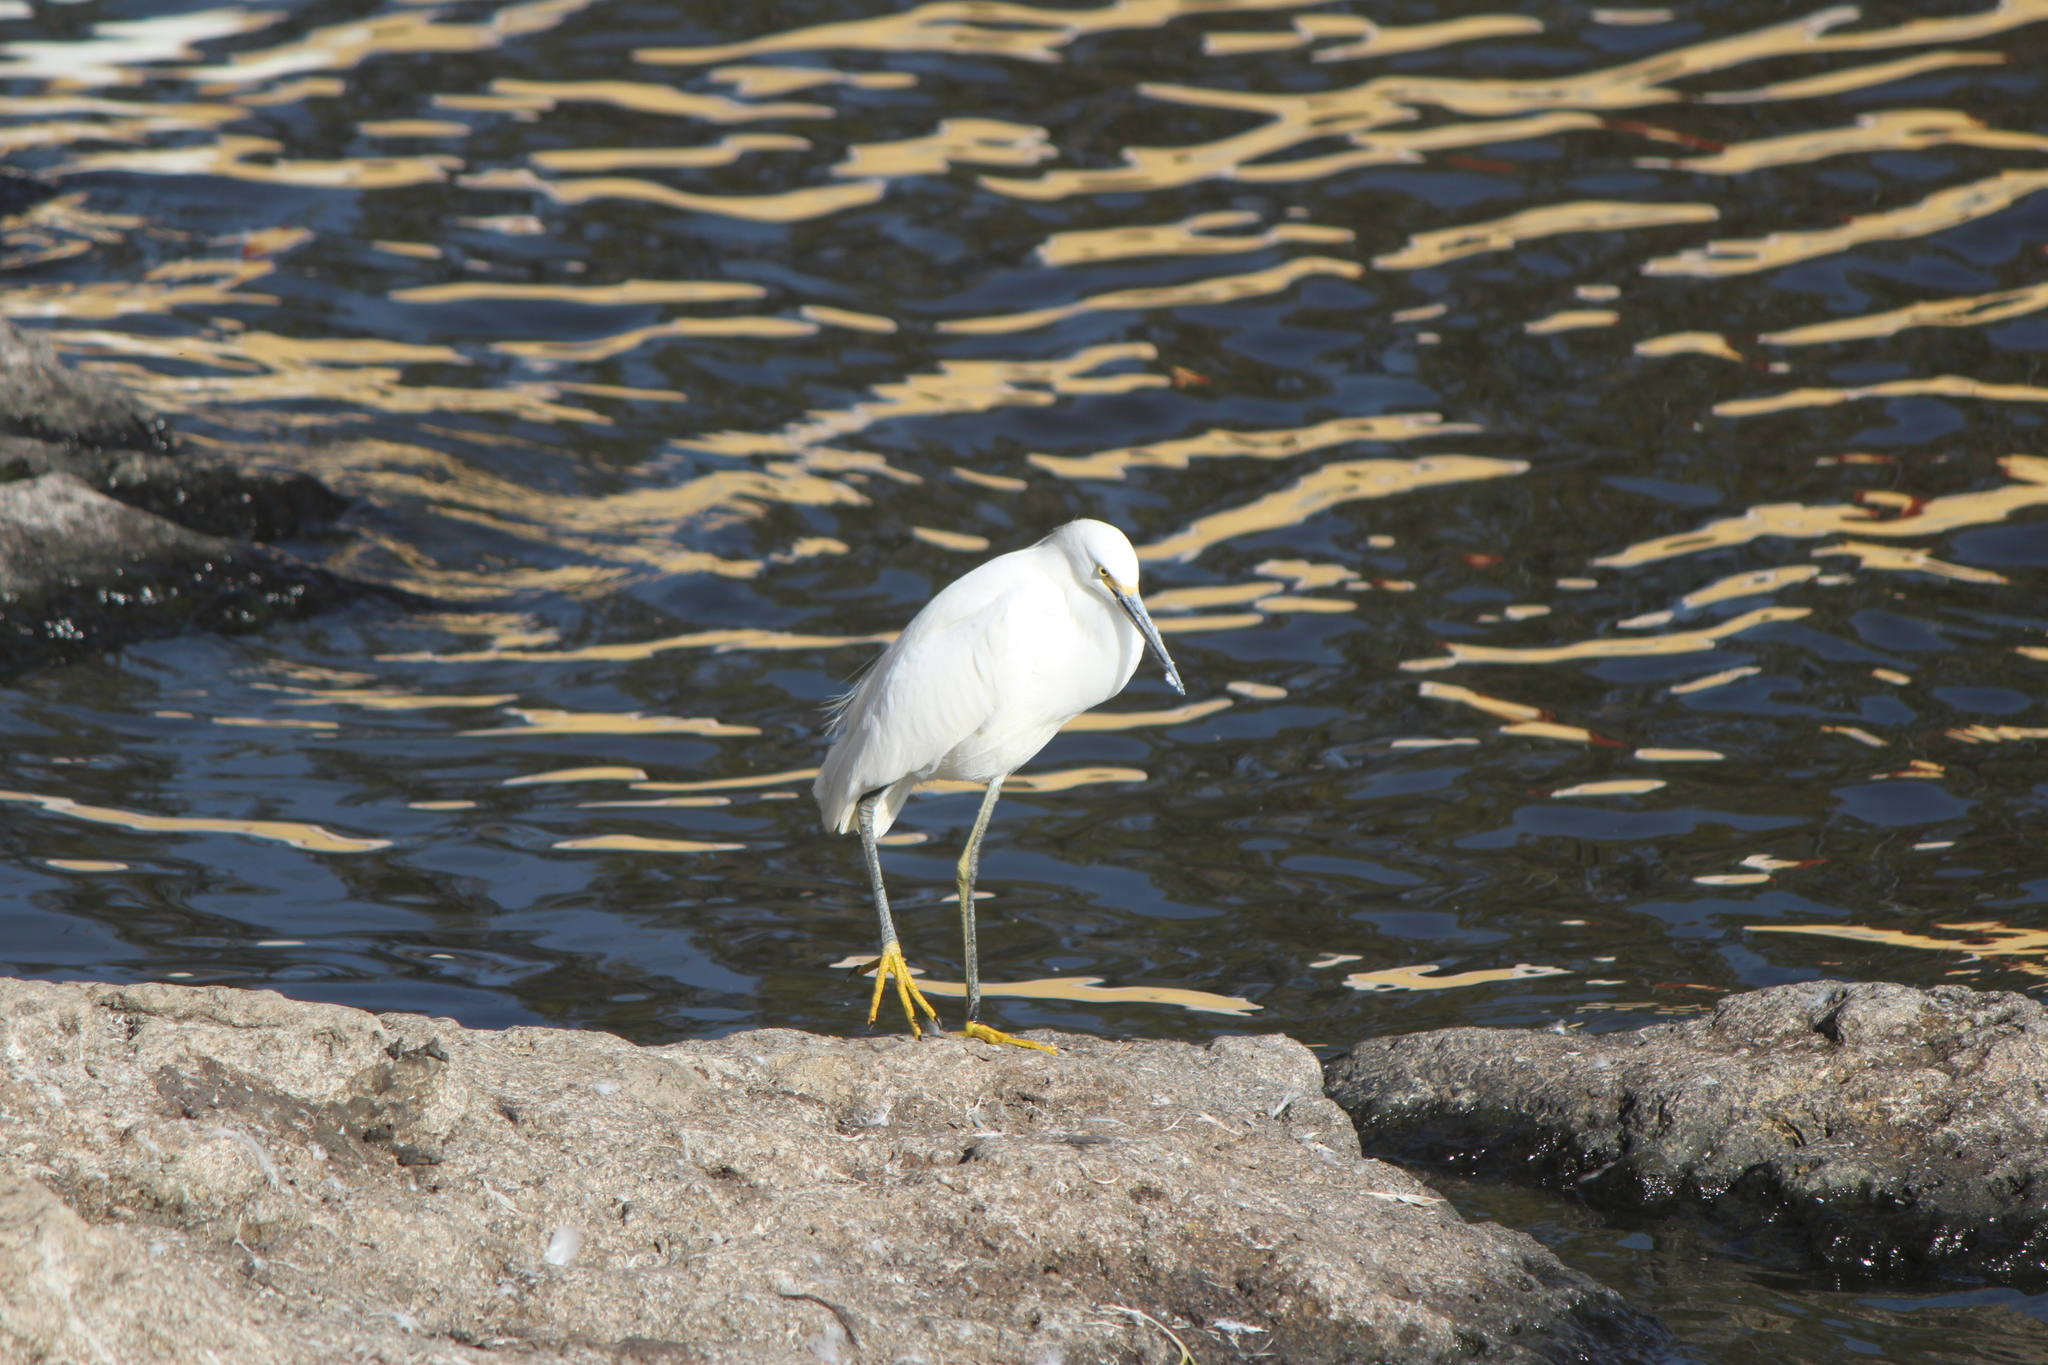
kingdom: Animalia
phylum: Chordata
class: Aves
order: Pelecaniformes
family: Ardeidae
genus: Egretta
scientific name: Egretta thula
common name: Snowy egret
